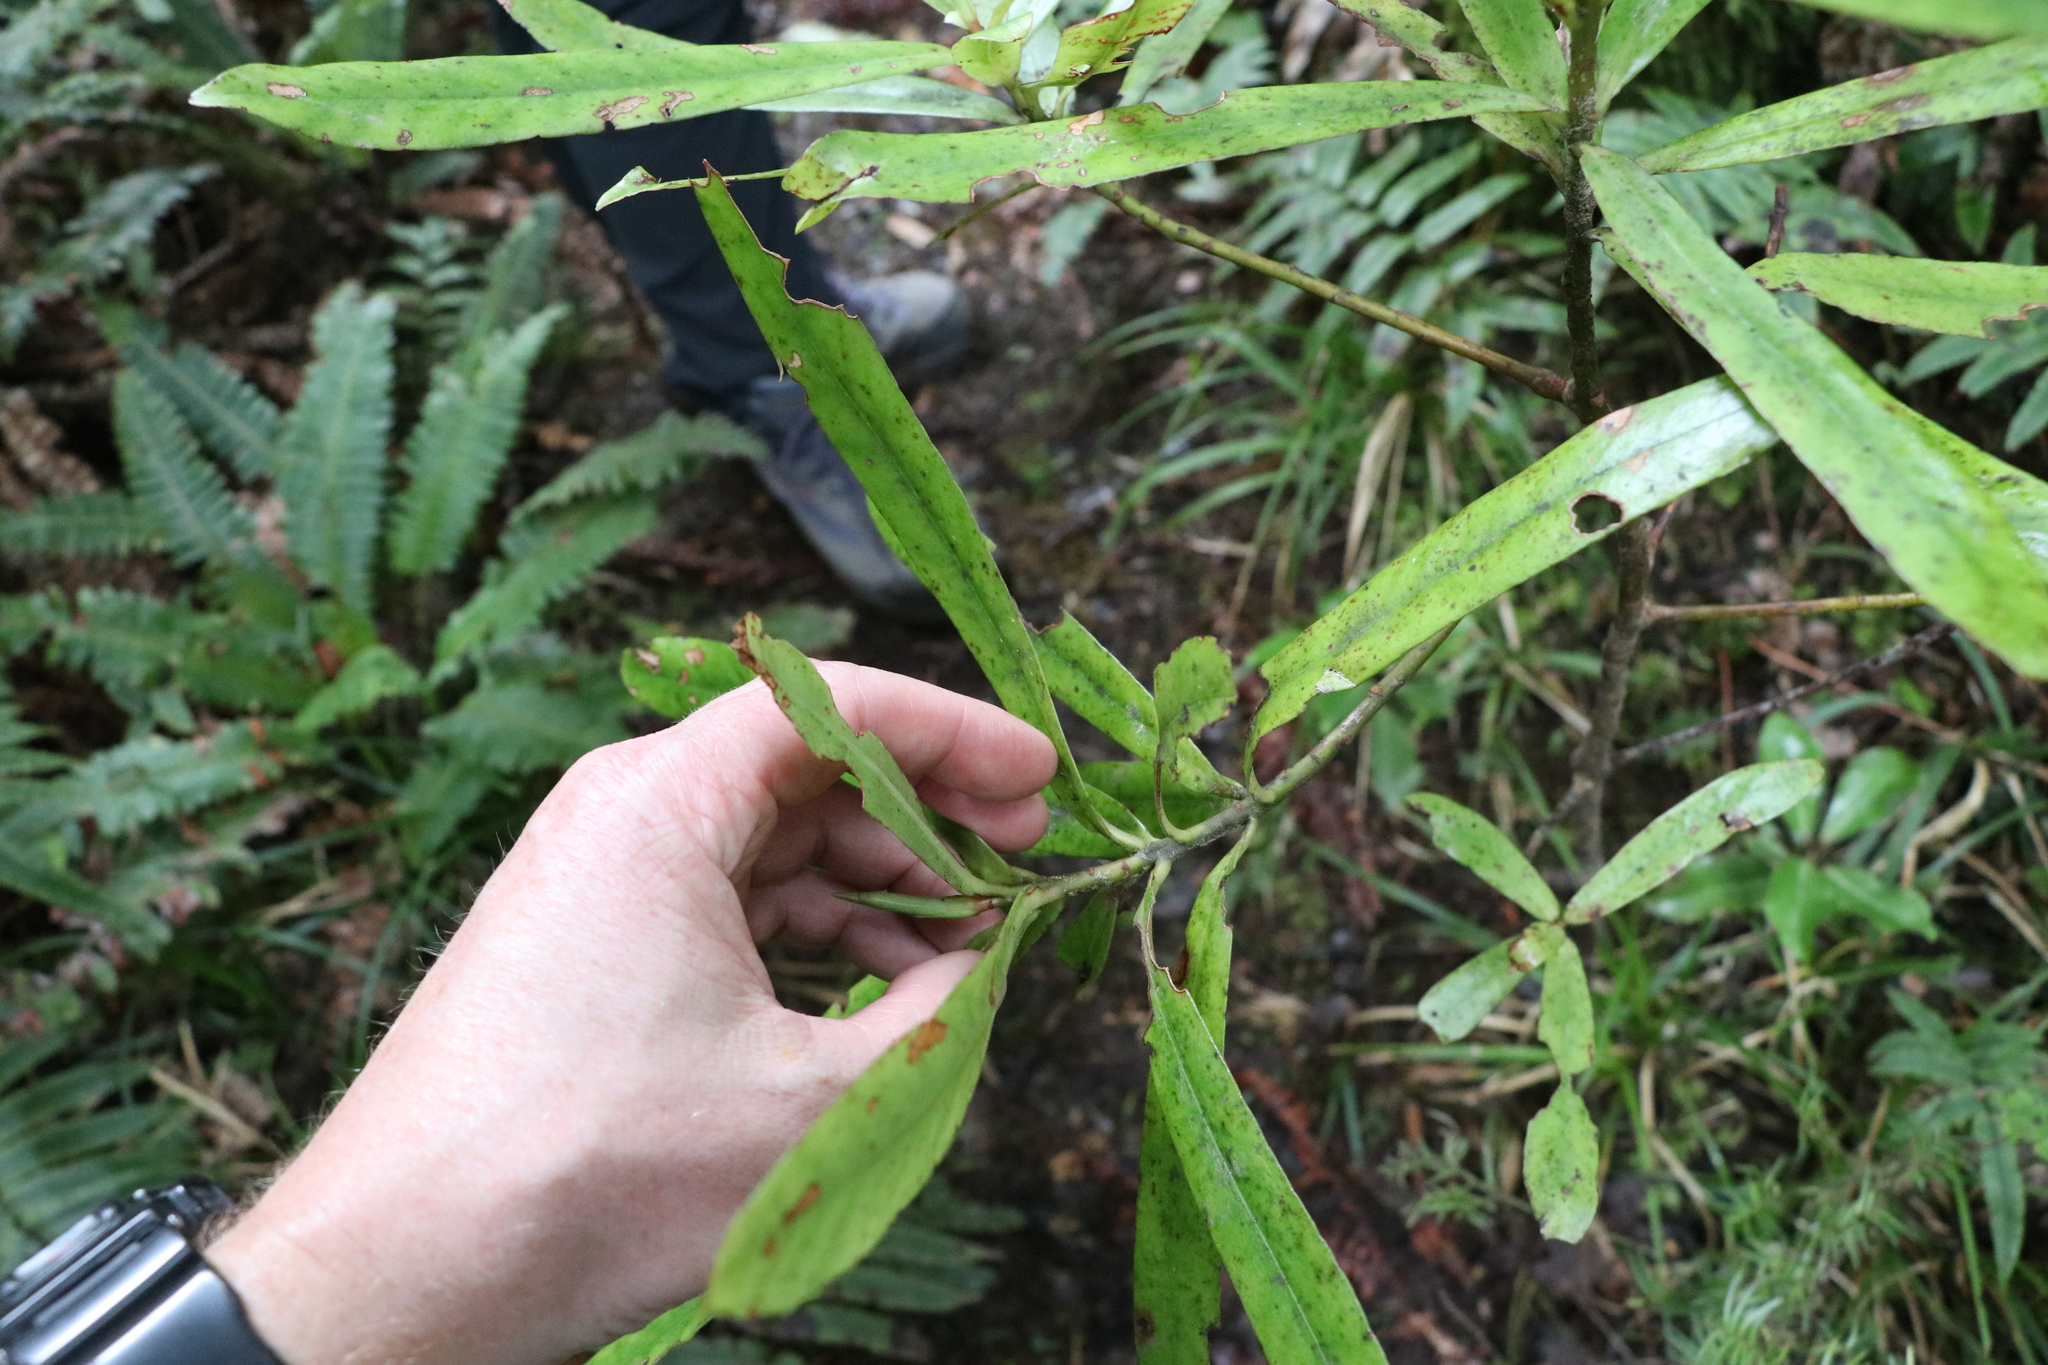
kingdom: Plantae
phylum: Tracheophyta
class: Magnoliopsida
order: Ericales
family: Primulaceae
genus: Myrsine
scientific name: Myrsine salicina
